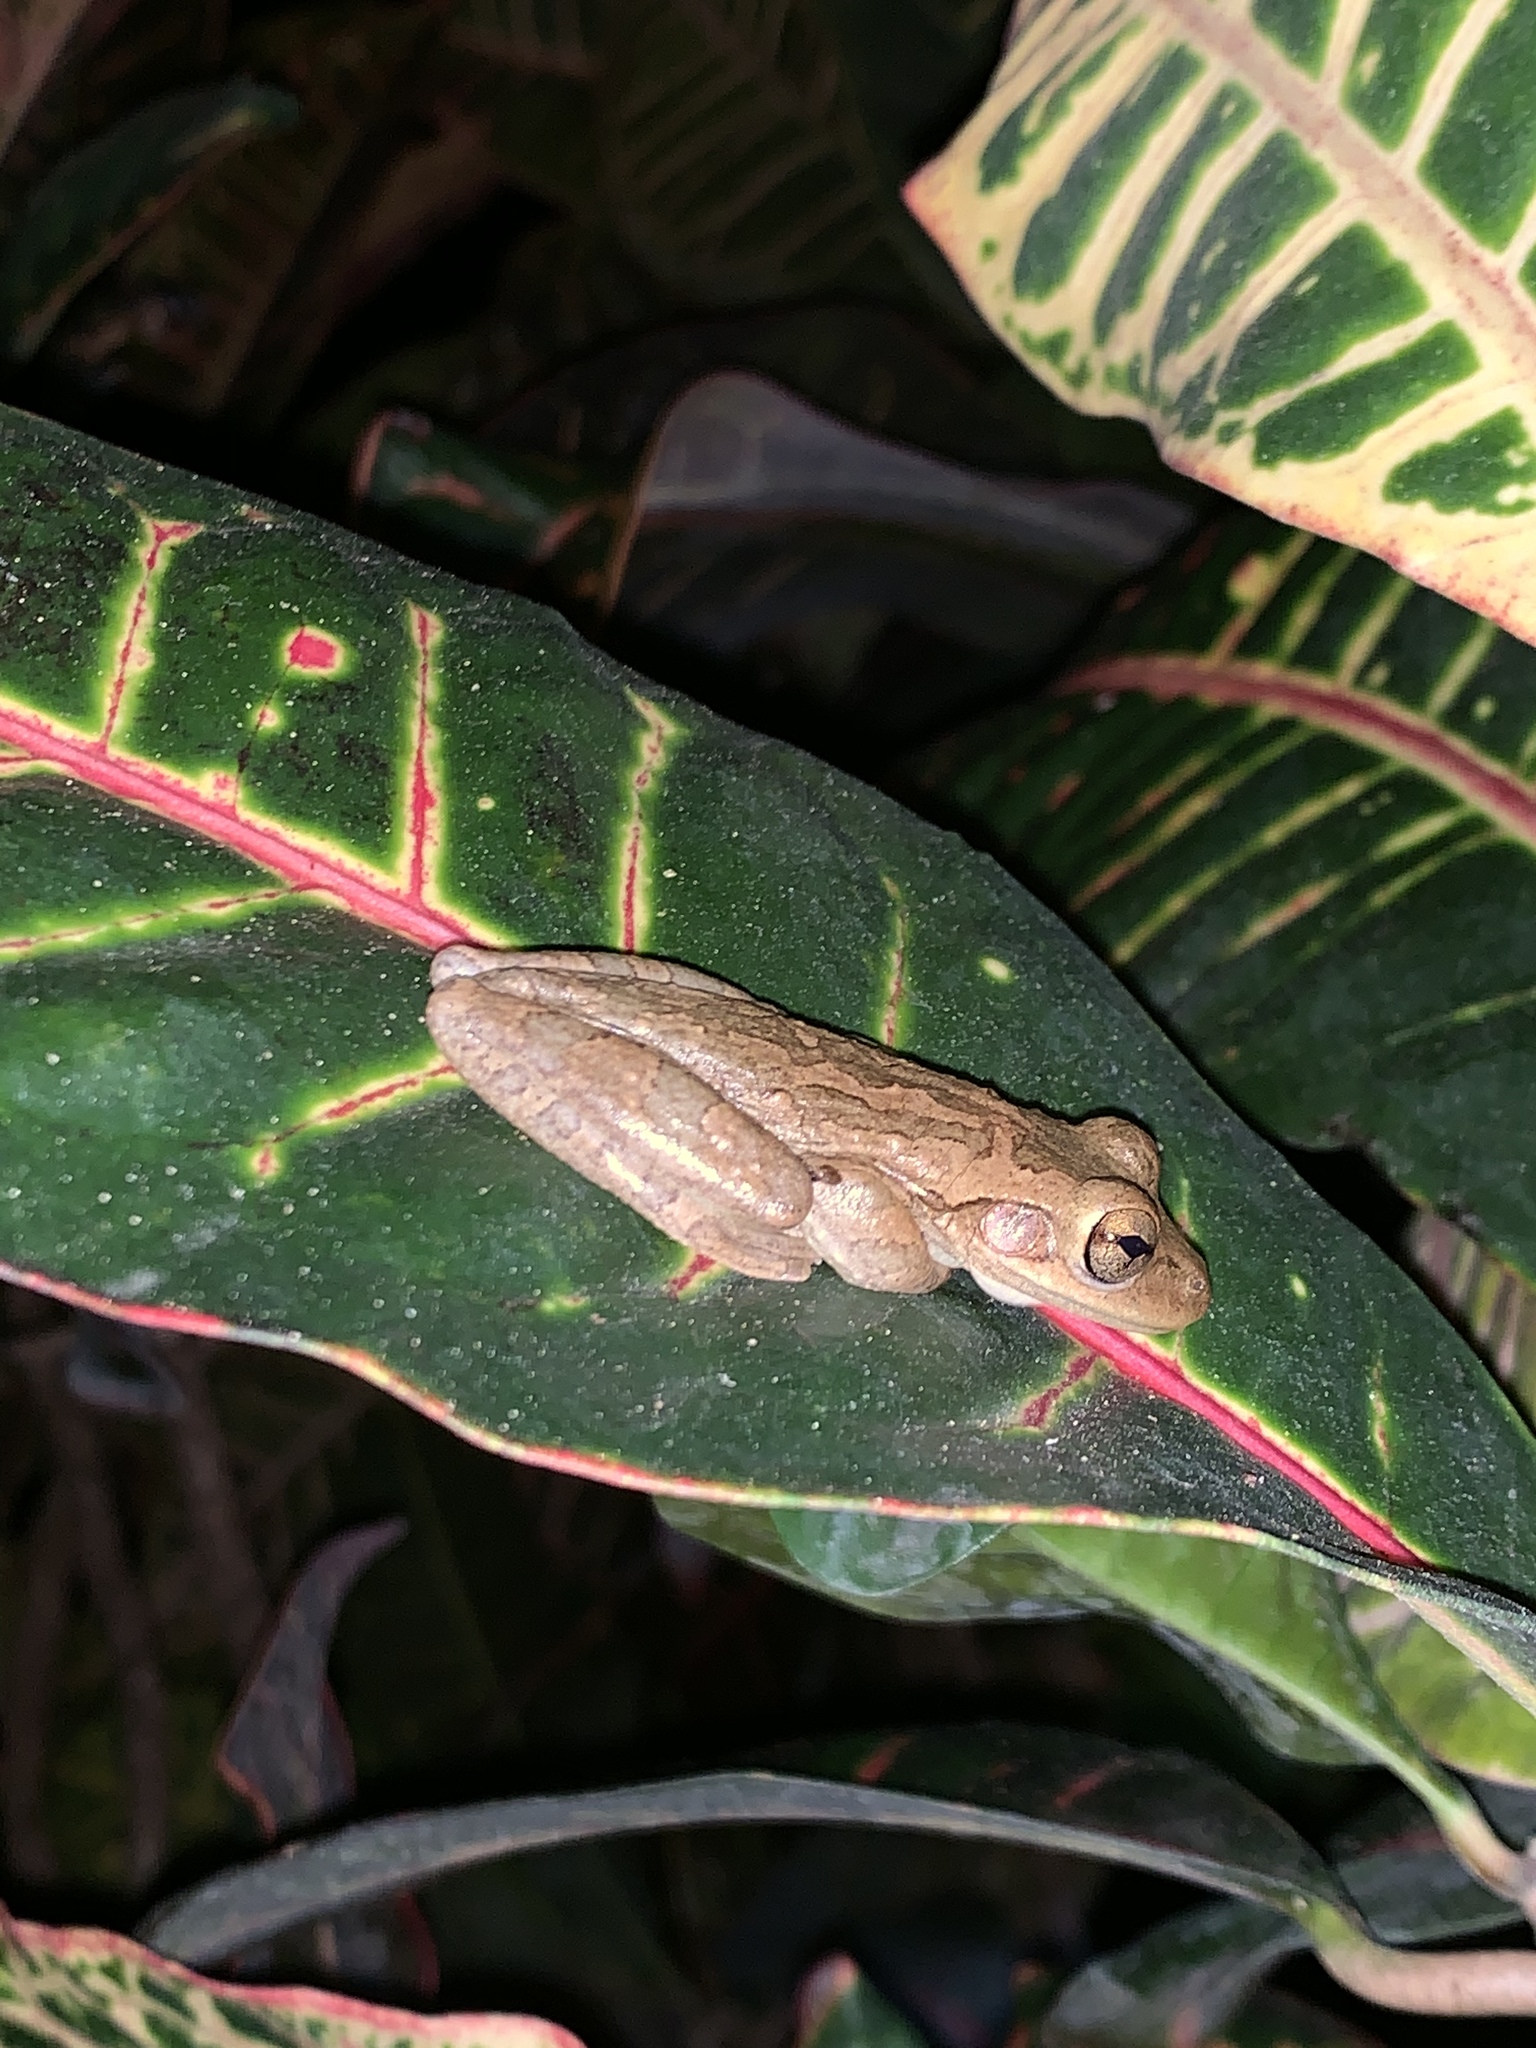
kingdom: Animalia
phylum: Chordata
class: Amphibia
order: Anura
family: Hylidae
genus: Osteopilus
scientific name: Osteopilus septentrionalis
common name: Cuban treefrog
